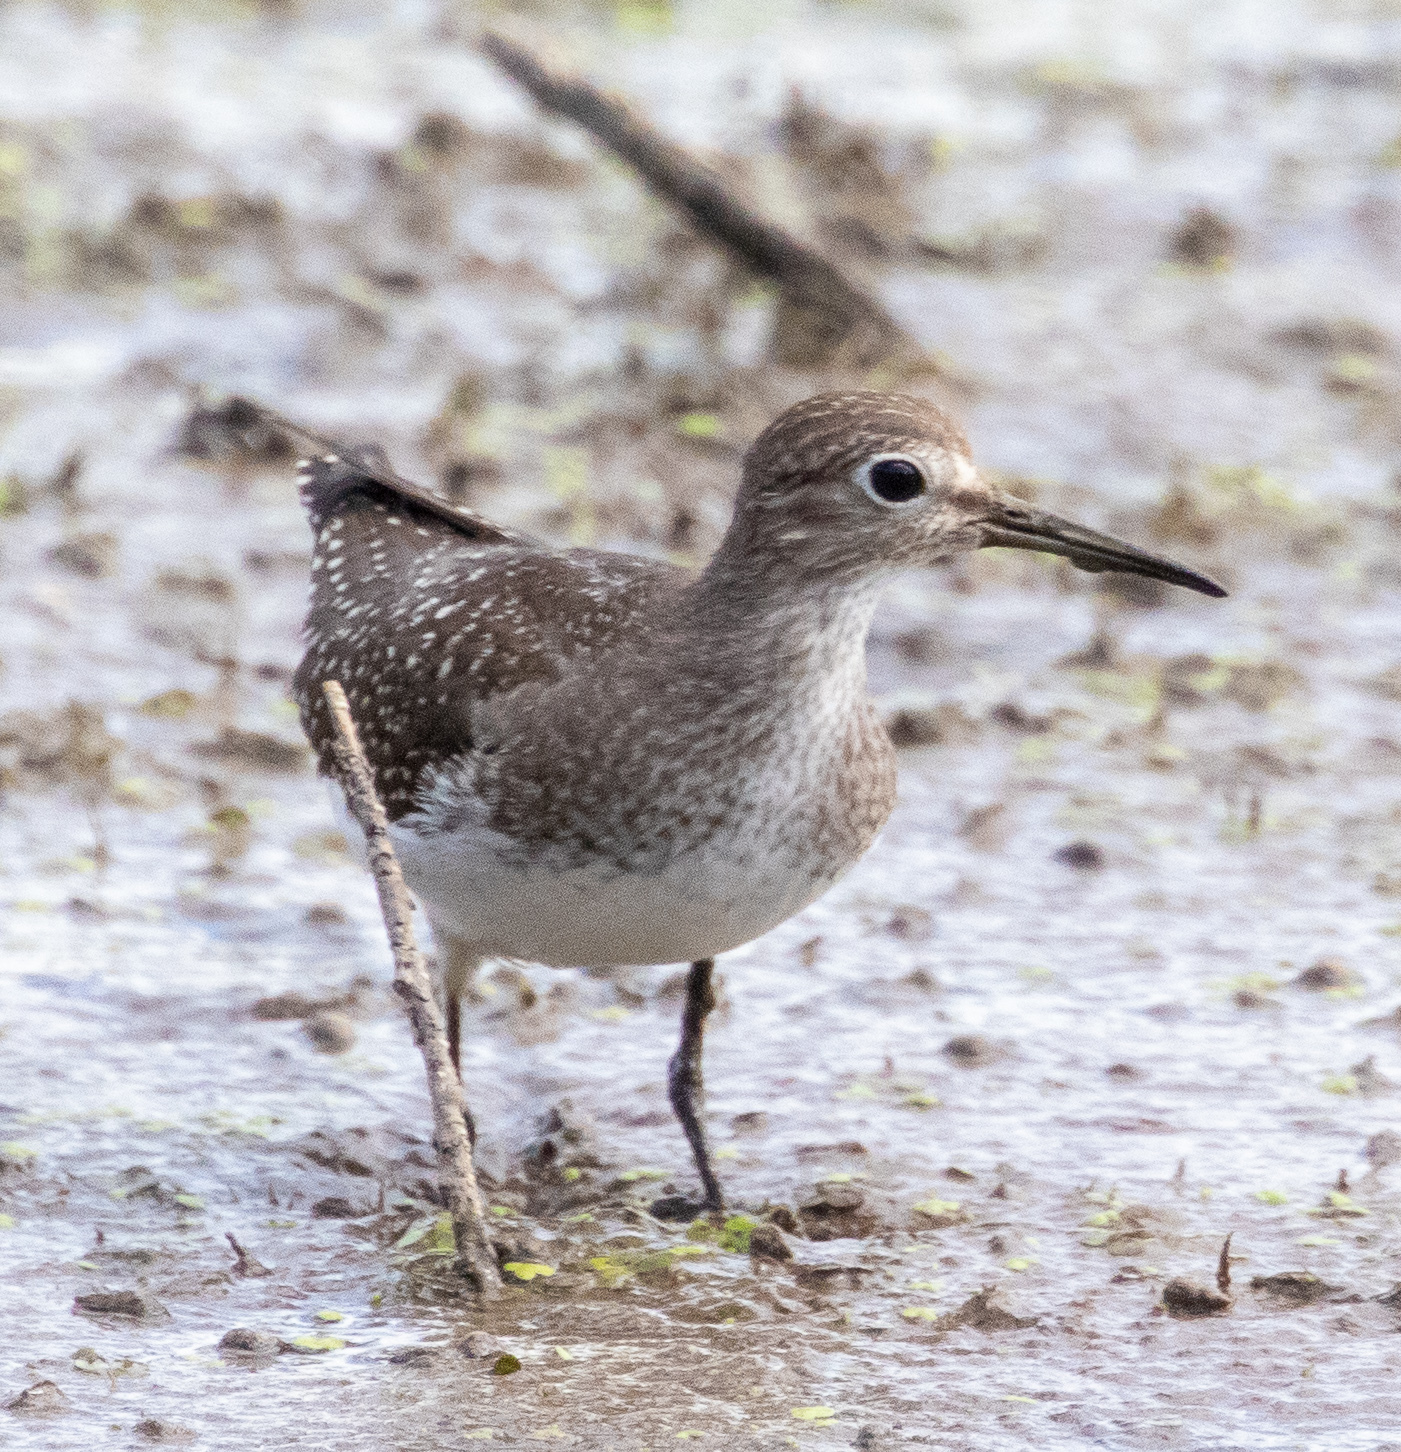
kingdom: Animalia
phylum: Chordata
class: Aves
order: Charadriiformes
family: Scolopacidae
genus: Tringa
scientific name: Tringa solitaria
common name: Solitary sandpiper
